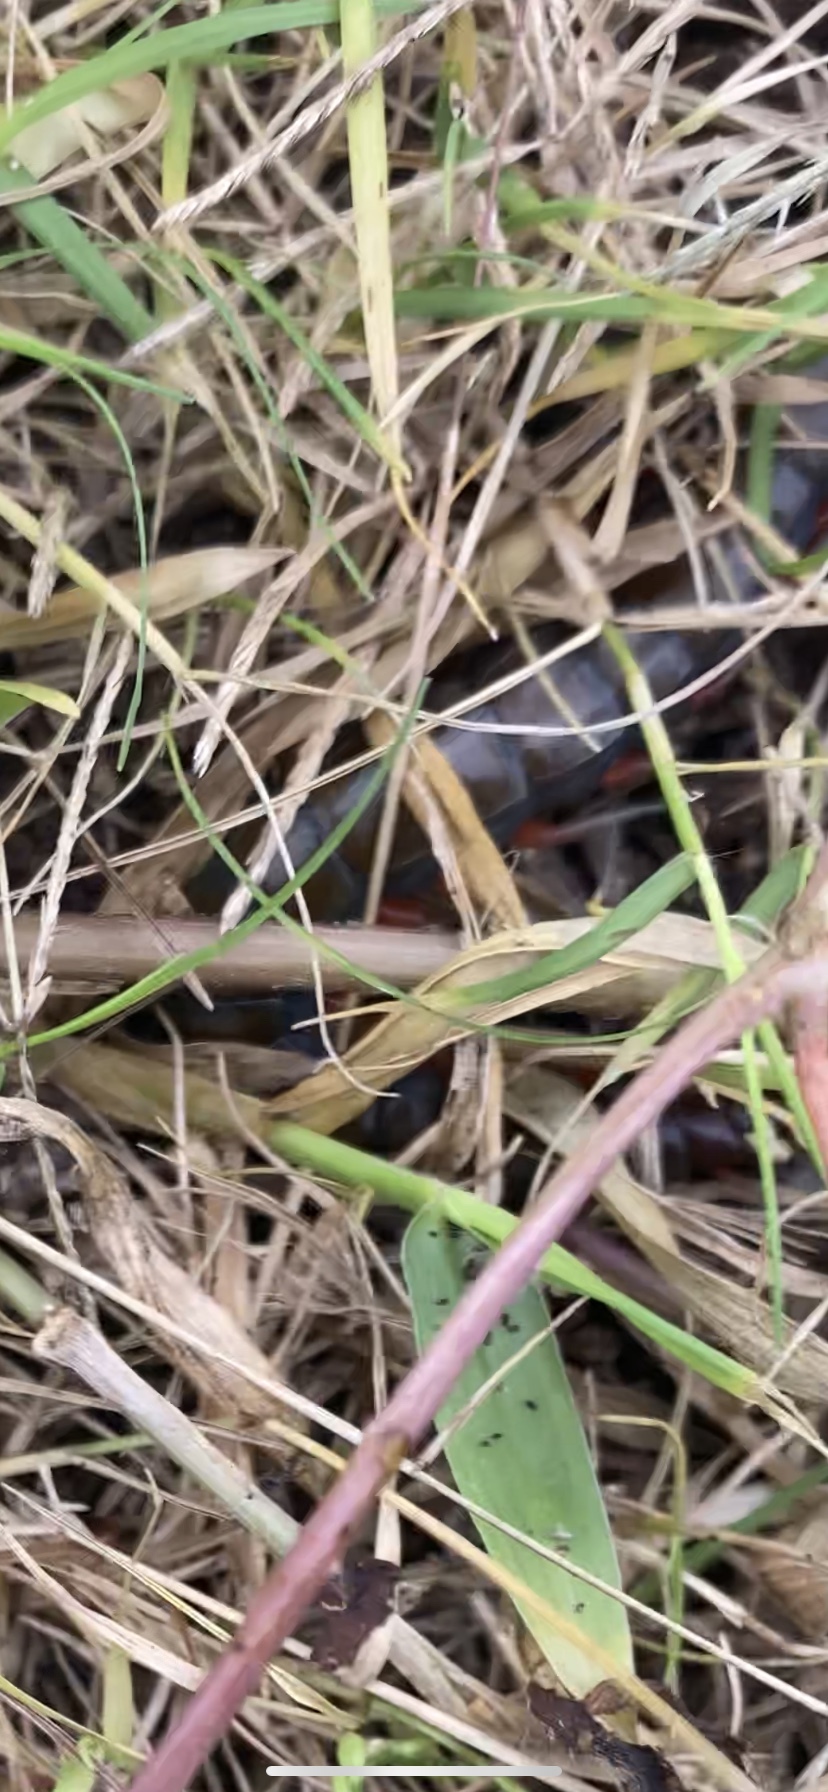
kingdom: Animalia
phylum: Arthropoda
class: Chilopoda
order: Scolopendromorpha
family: Scolopendridae
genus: Scolopendra
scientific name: Scolopendra subspinipes
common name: Centipede
